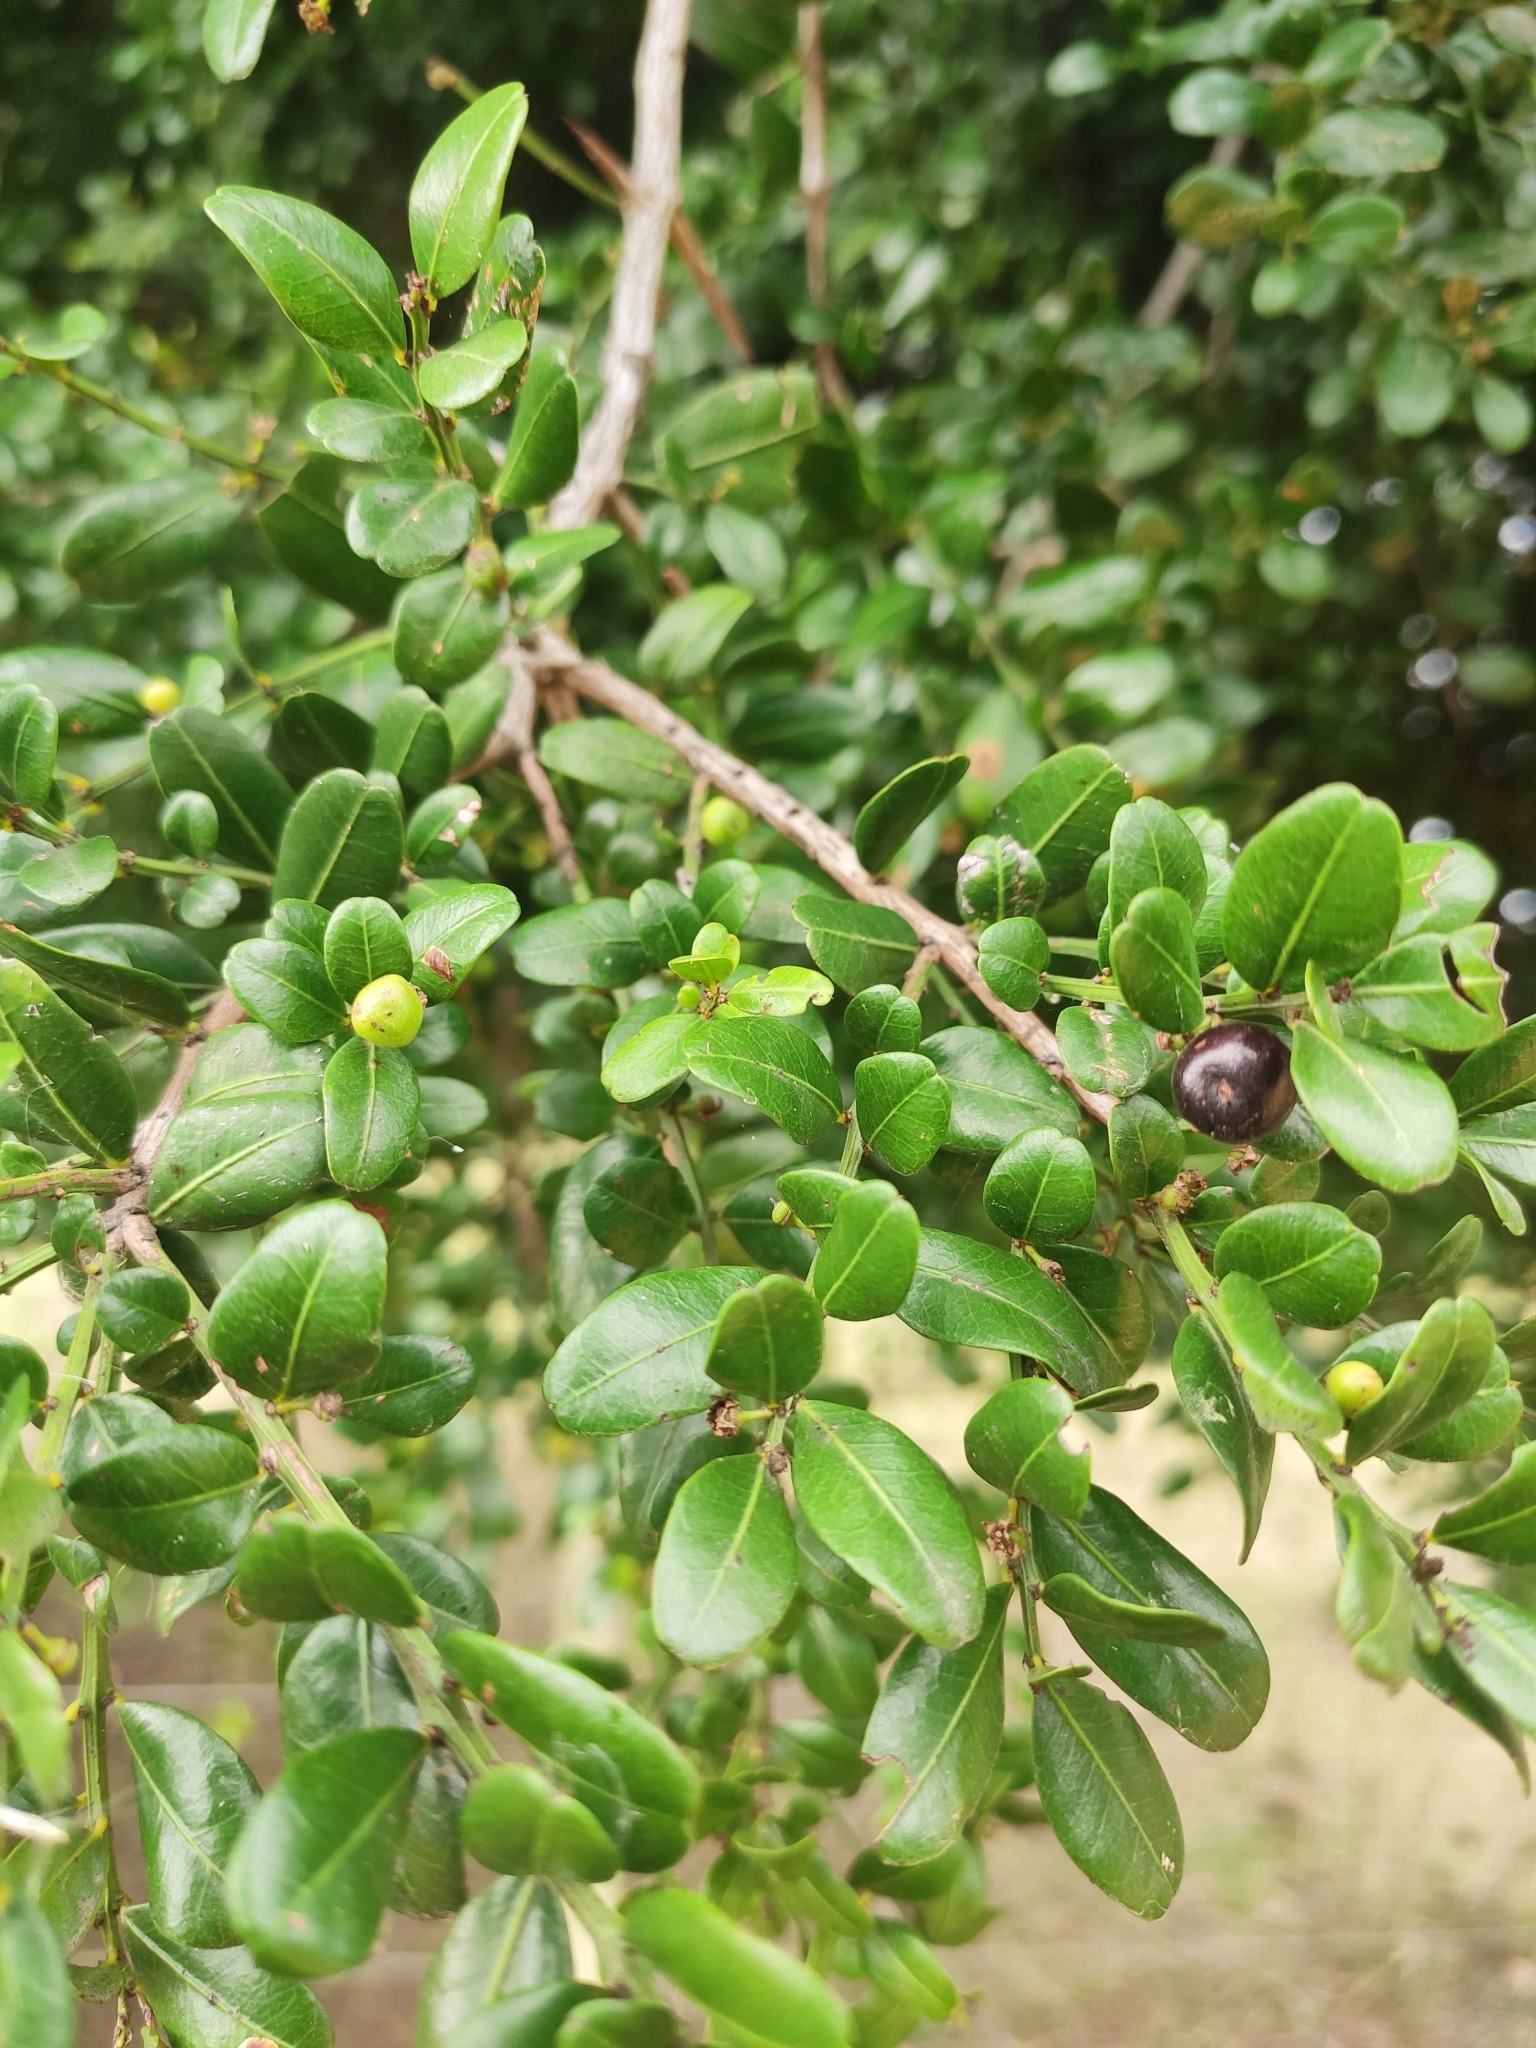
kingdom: Plantae
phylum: Tracheophyta
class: Magnoliopsida
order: Rosales
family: Rhamnaceae
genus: Scutia
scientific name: Scutia buxifolia
